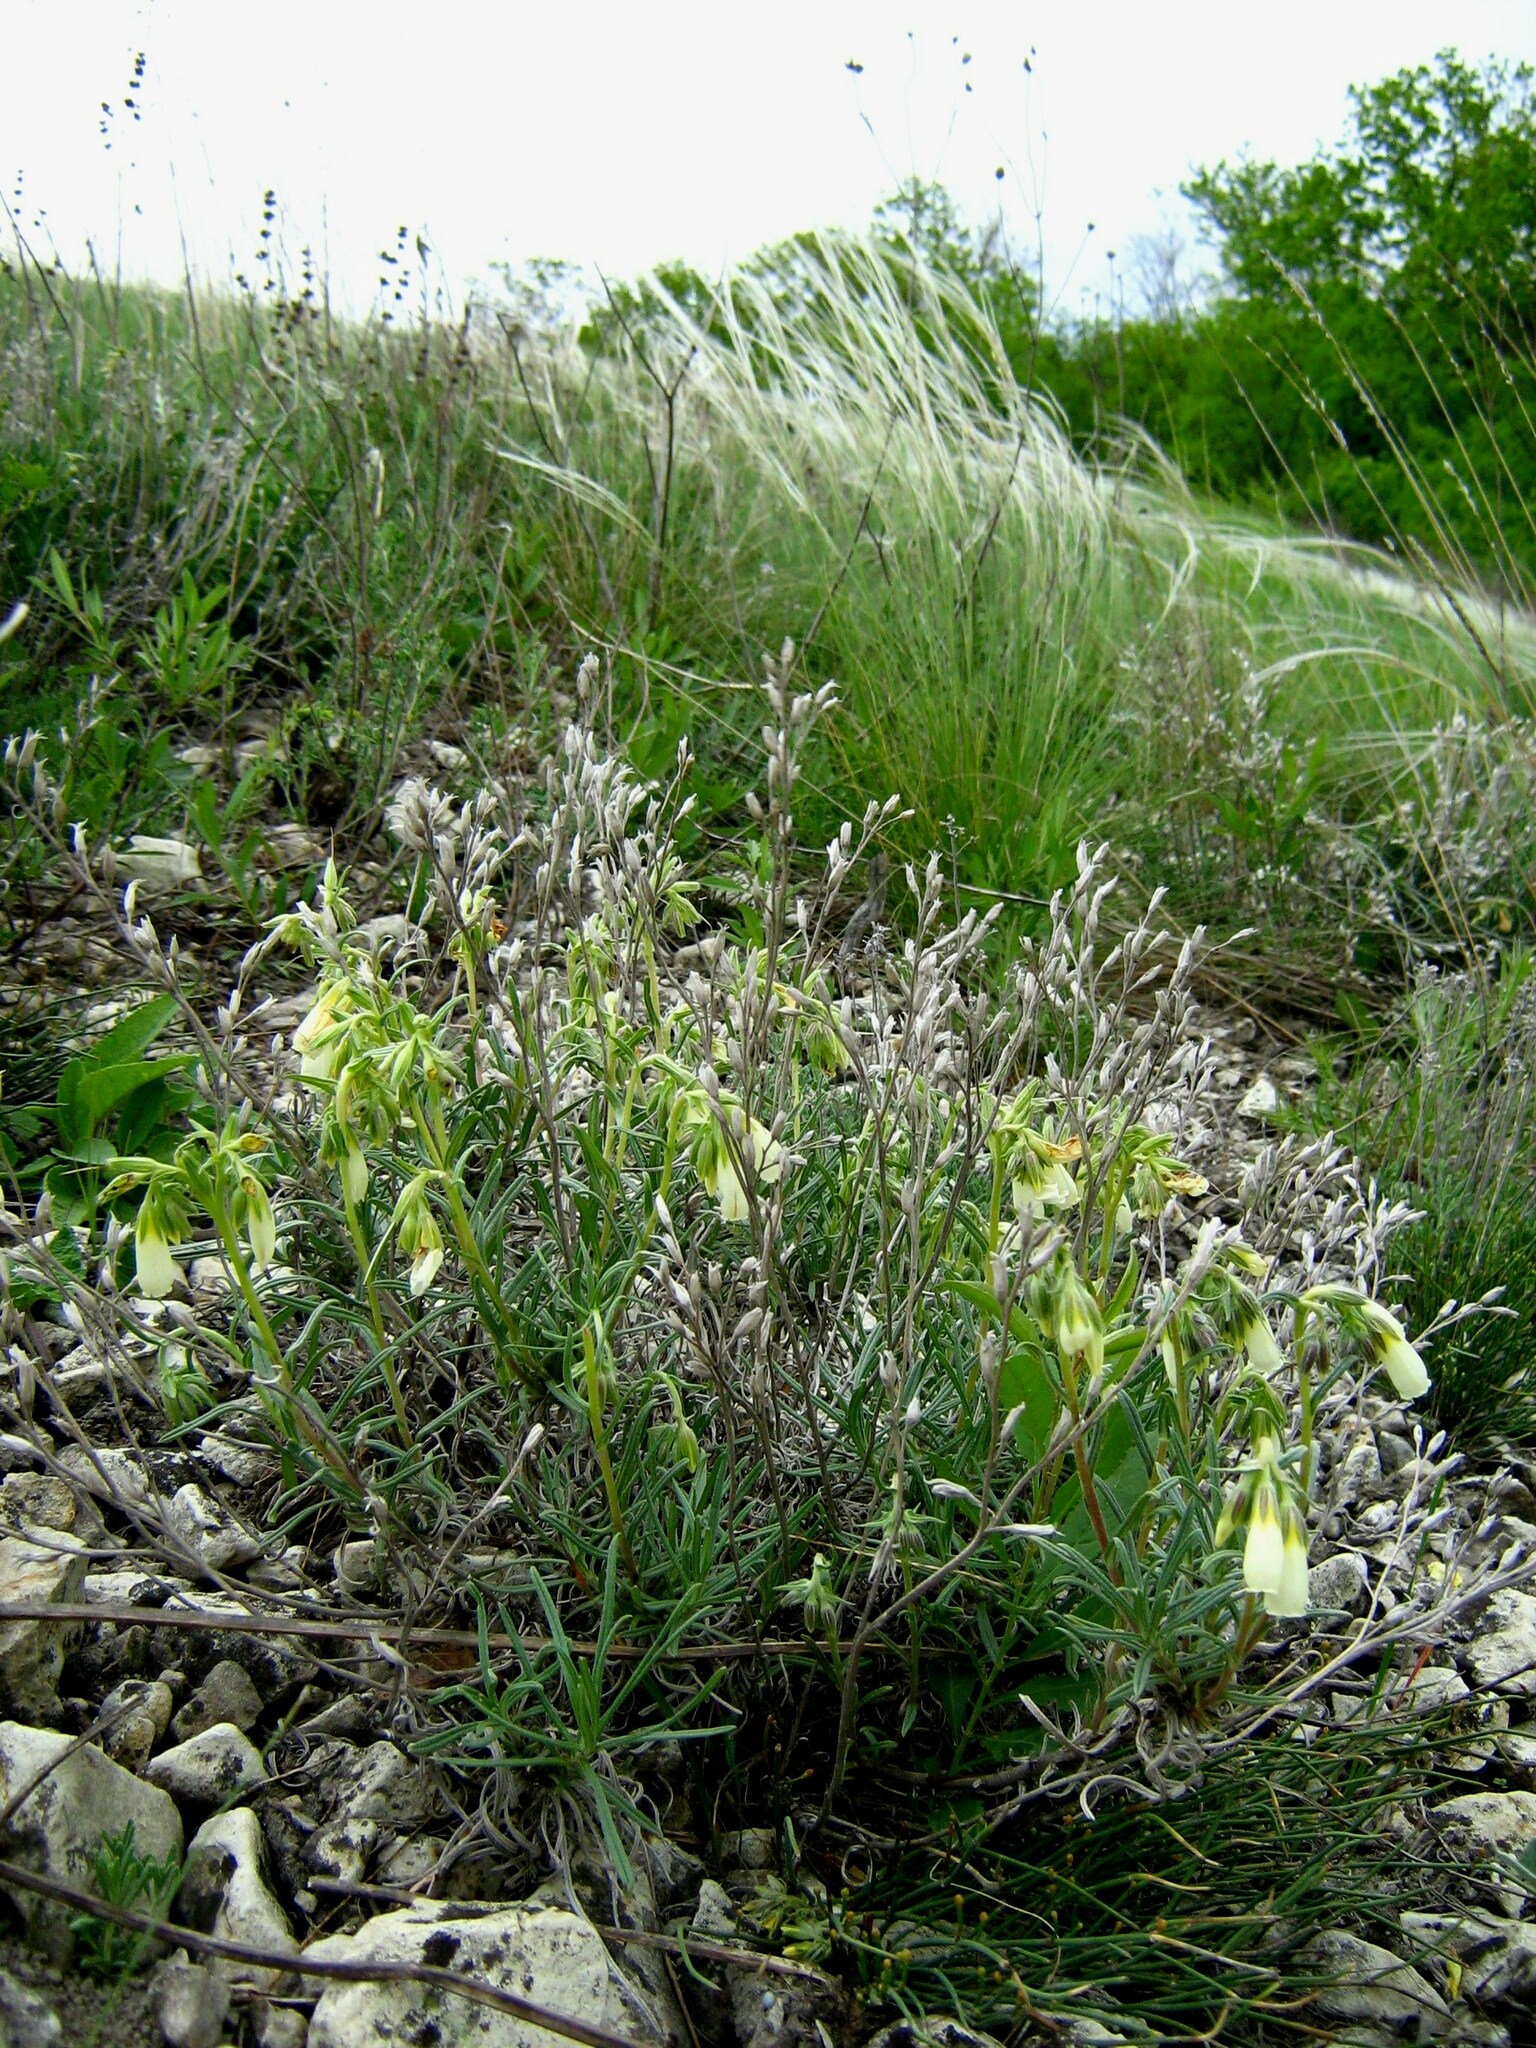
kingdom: Plantae
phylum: Tracheophyta
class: Magnoliopsida
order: Boraginales
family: Boraginaceae
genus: Onosma
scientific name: Onosma simplicissima
